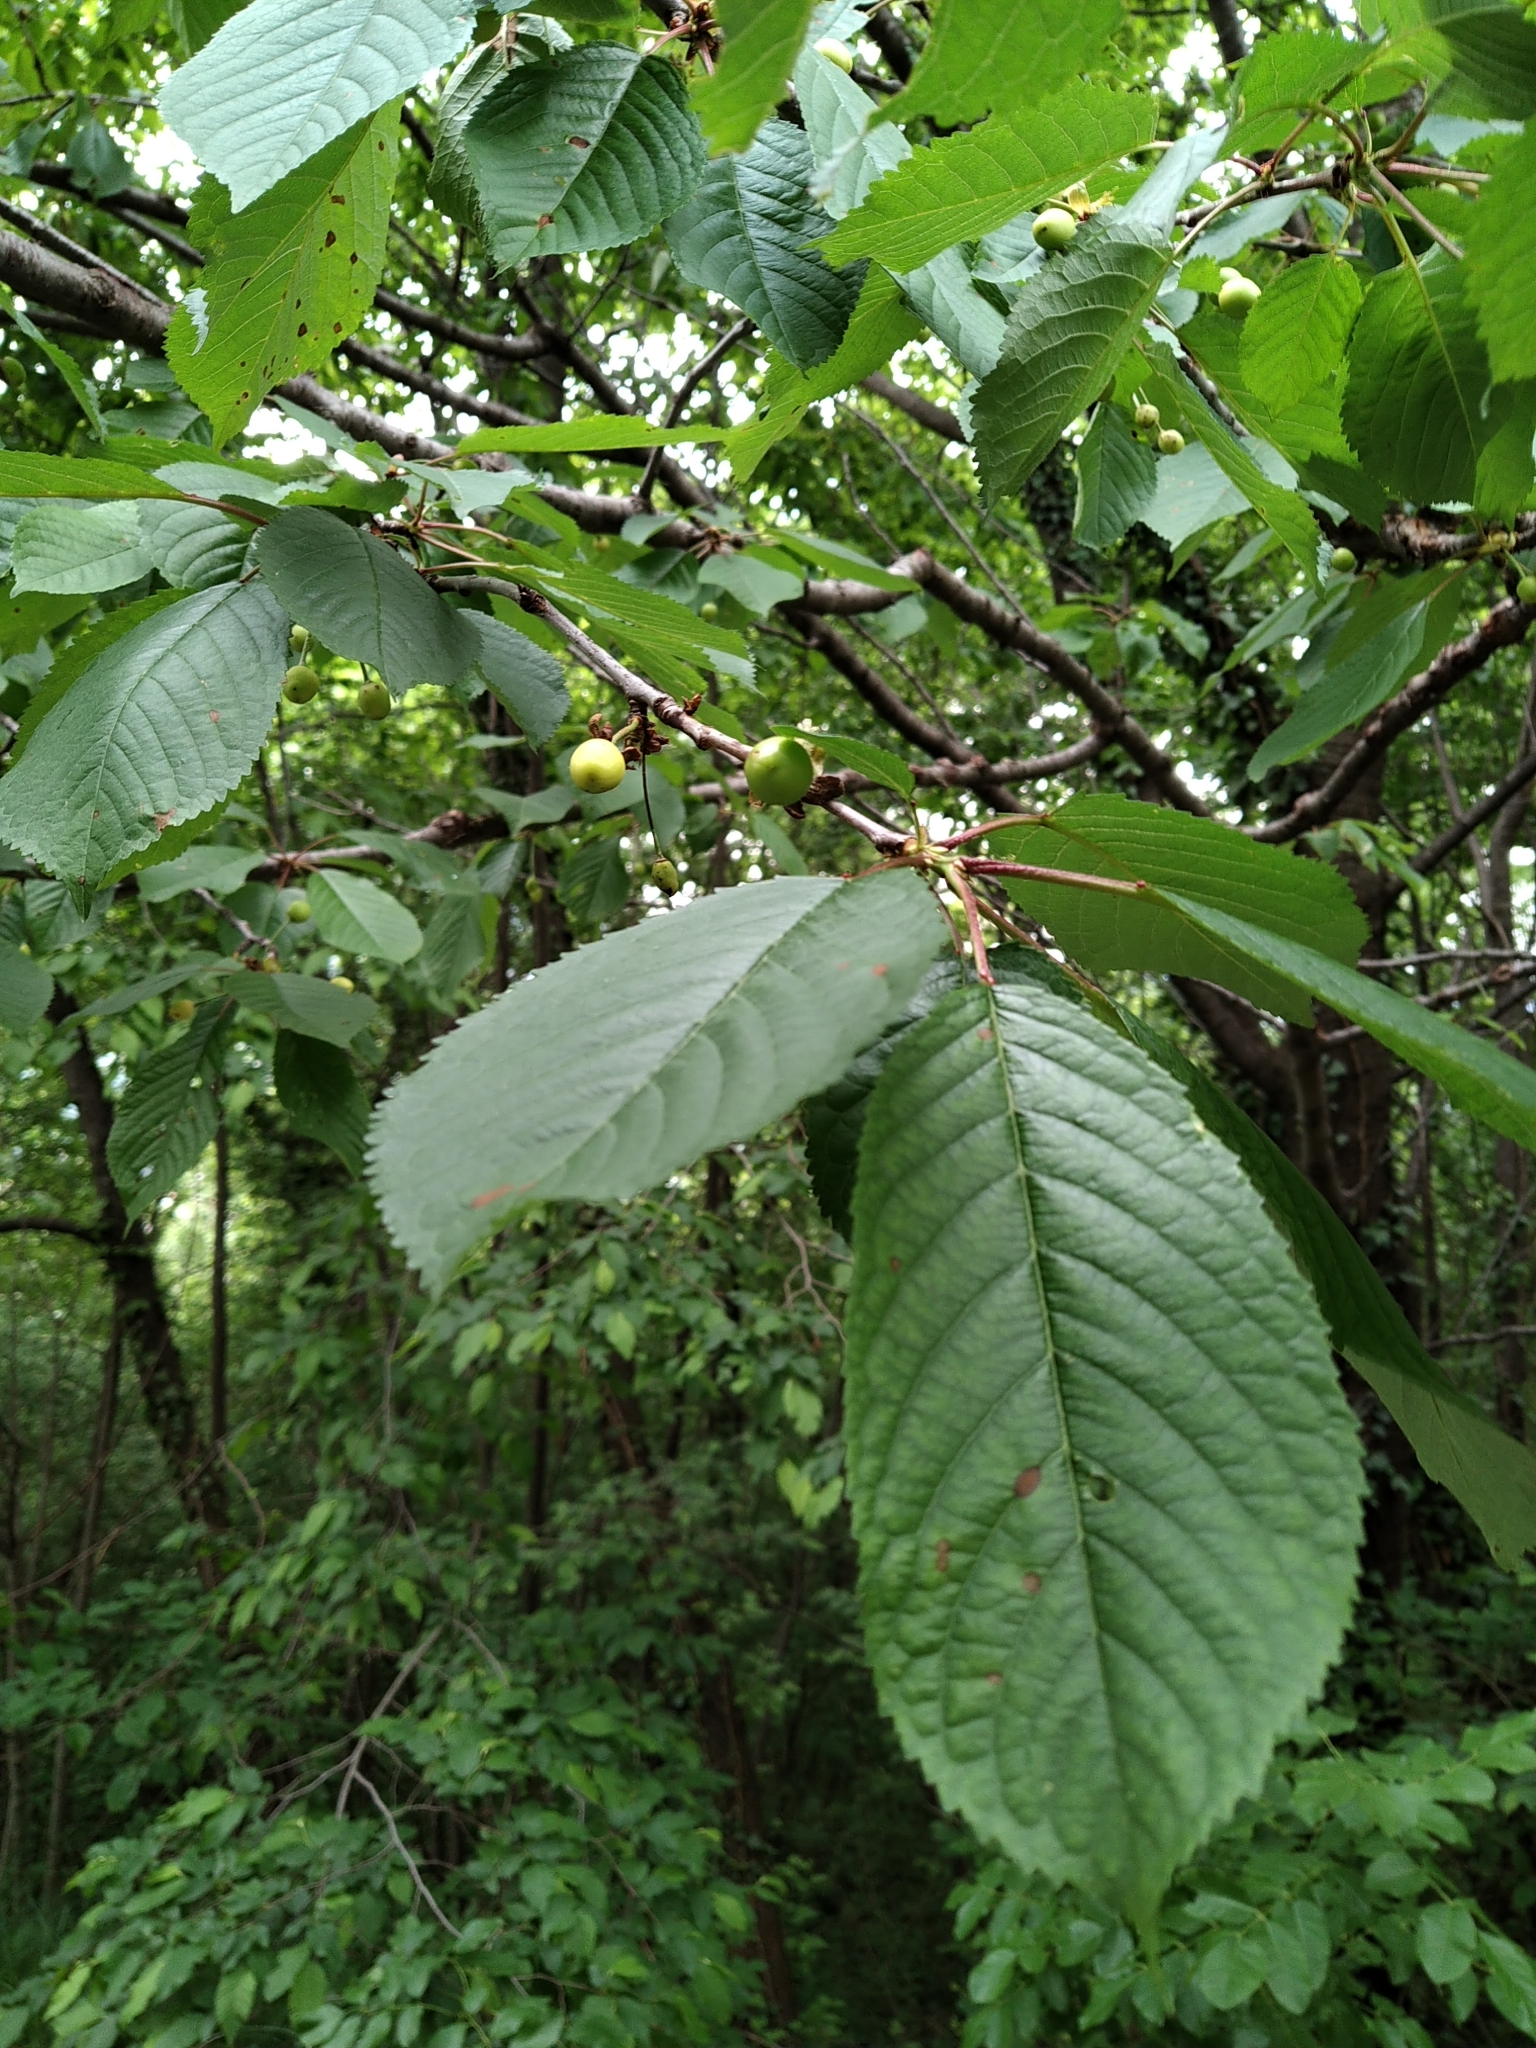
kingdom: Plantae
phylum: Tracheophyta
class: Magnoliopsida
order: Rosales
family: Rosaceae
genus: Prunus
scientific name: Prunus avium
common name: Sweet cherry
